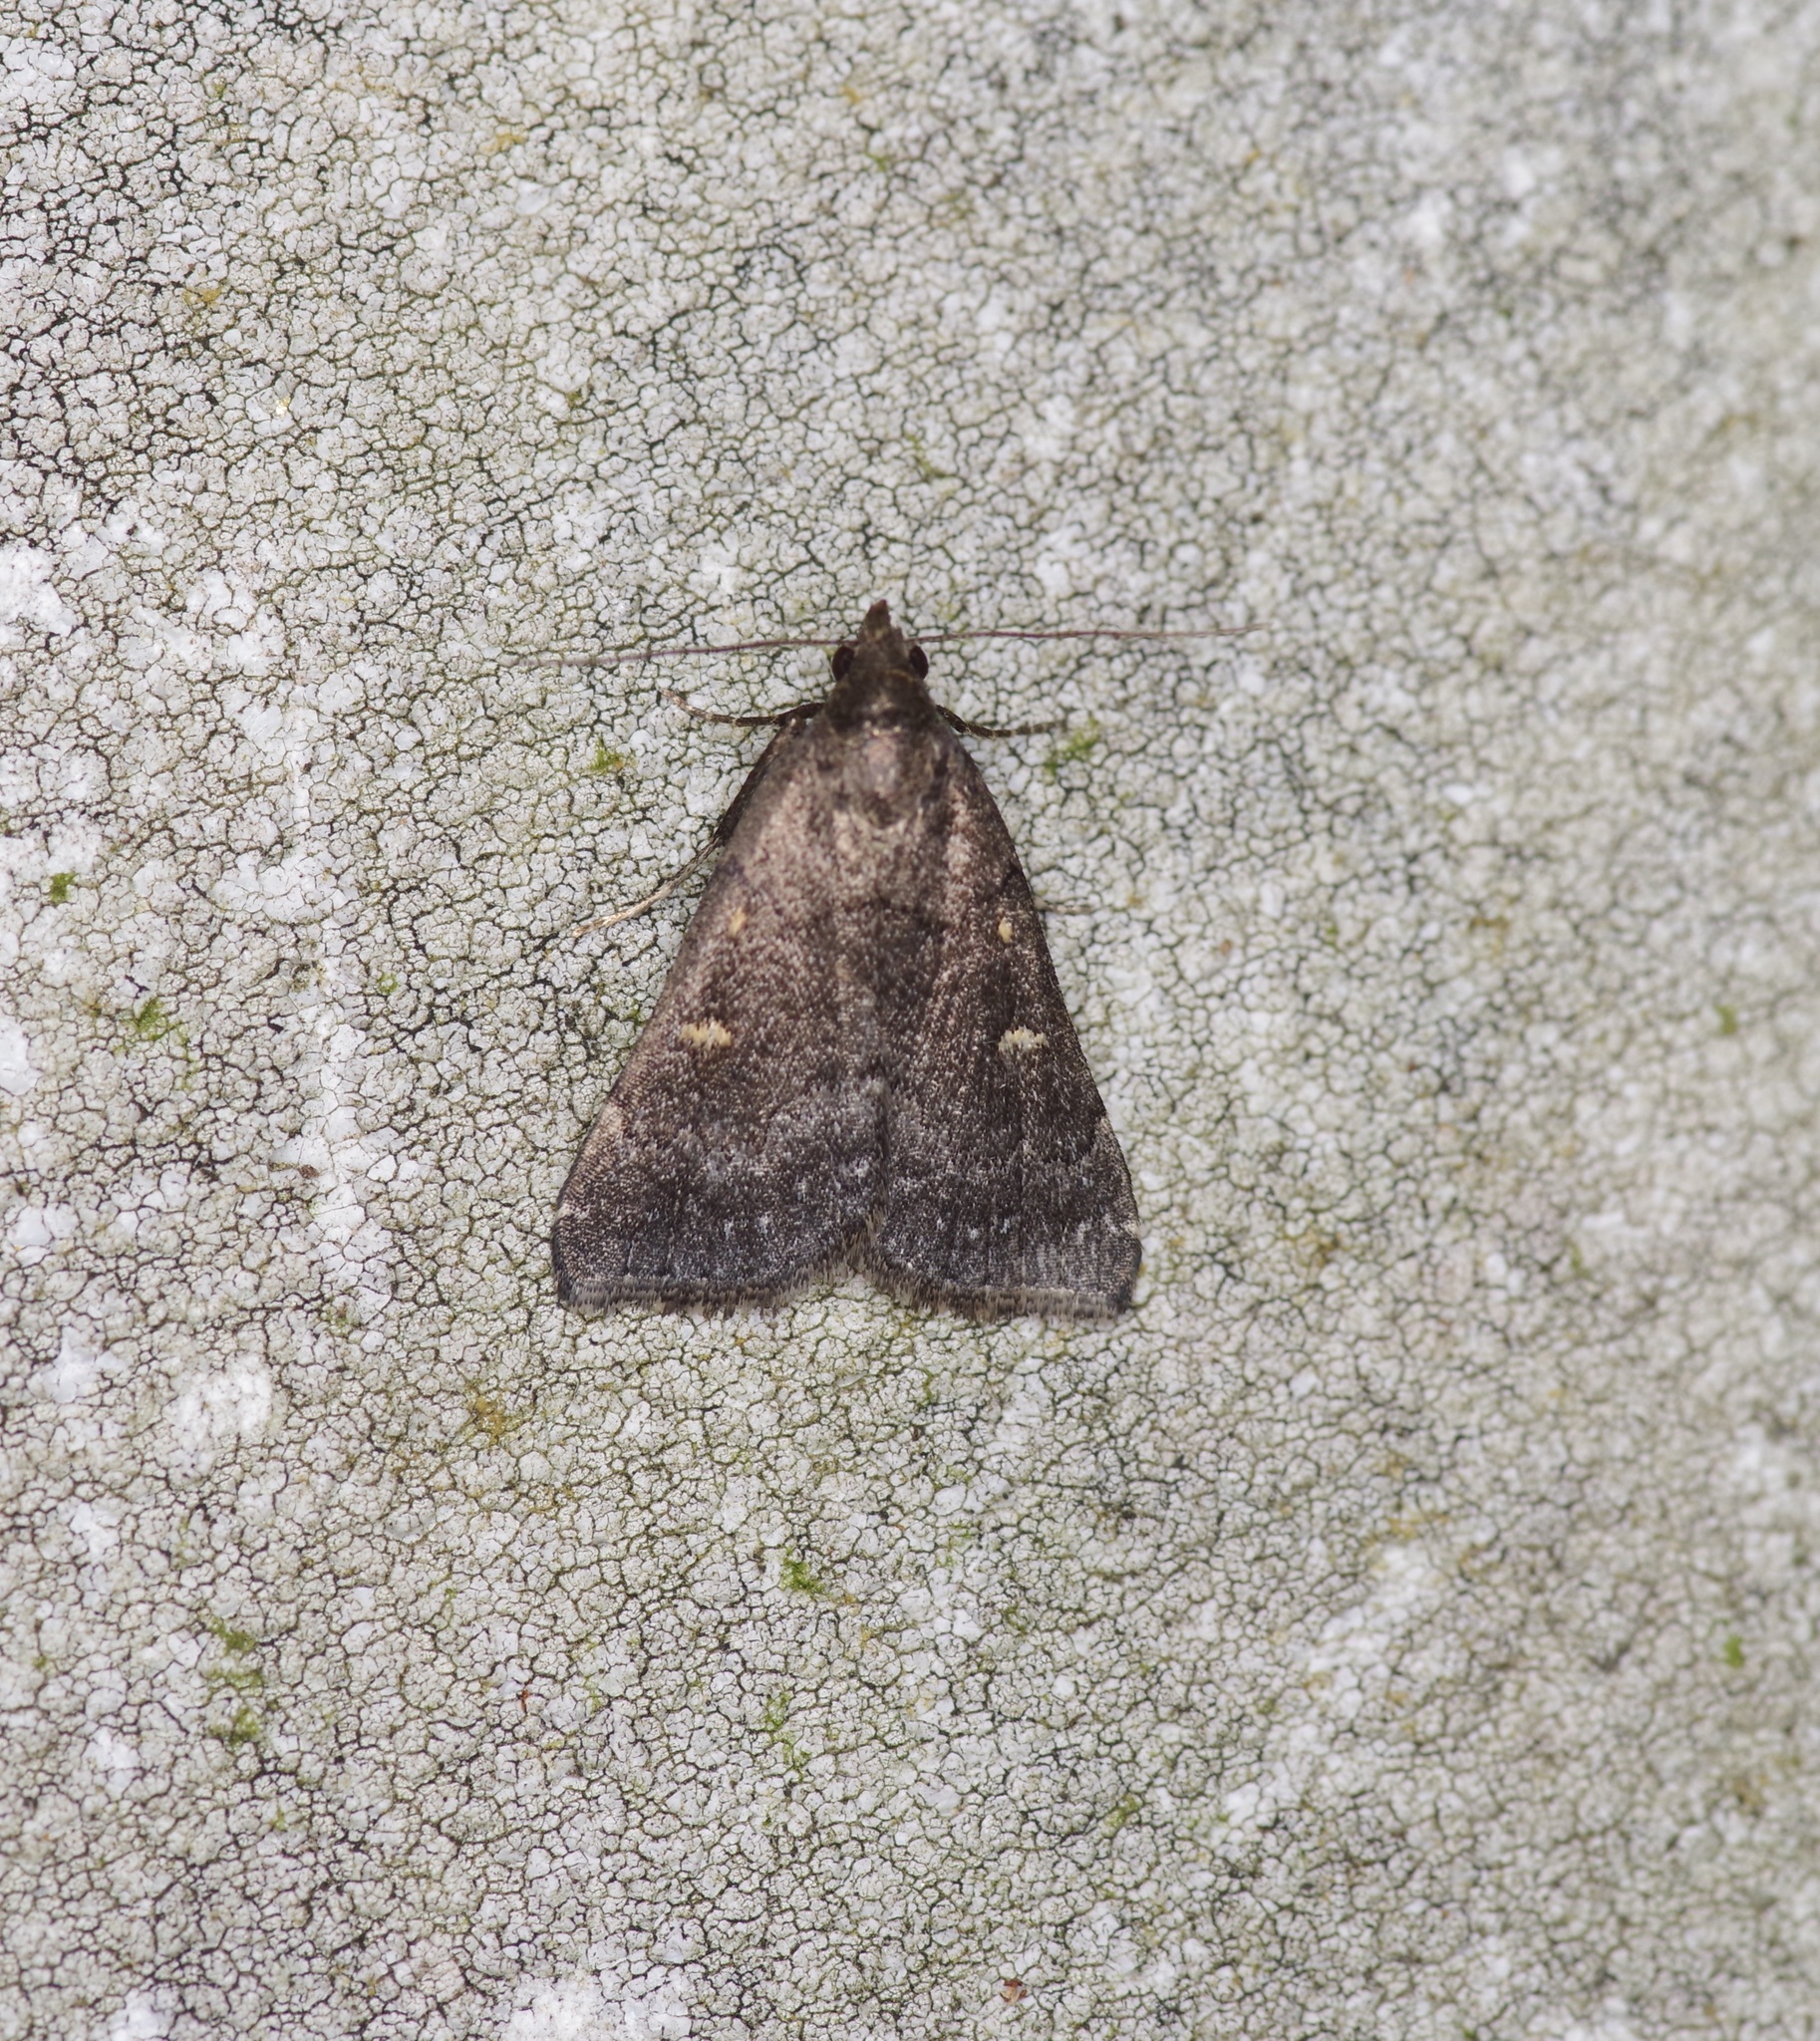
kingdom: Animalia
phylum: Arthropoda
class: Insecta
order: Lepidoptera
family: Erebidae
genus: Tetanolita
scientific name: Tetanolita mynesalis
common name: Smoky tetanolita moth
